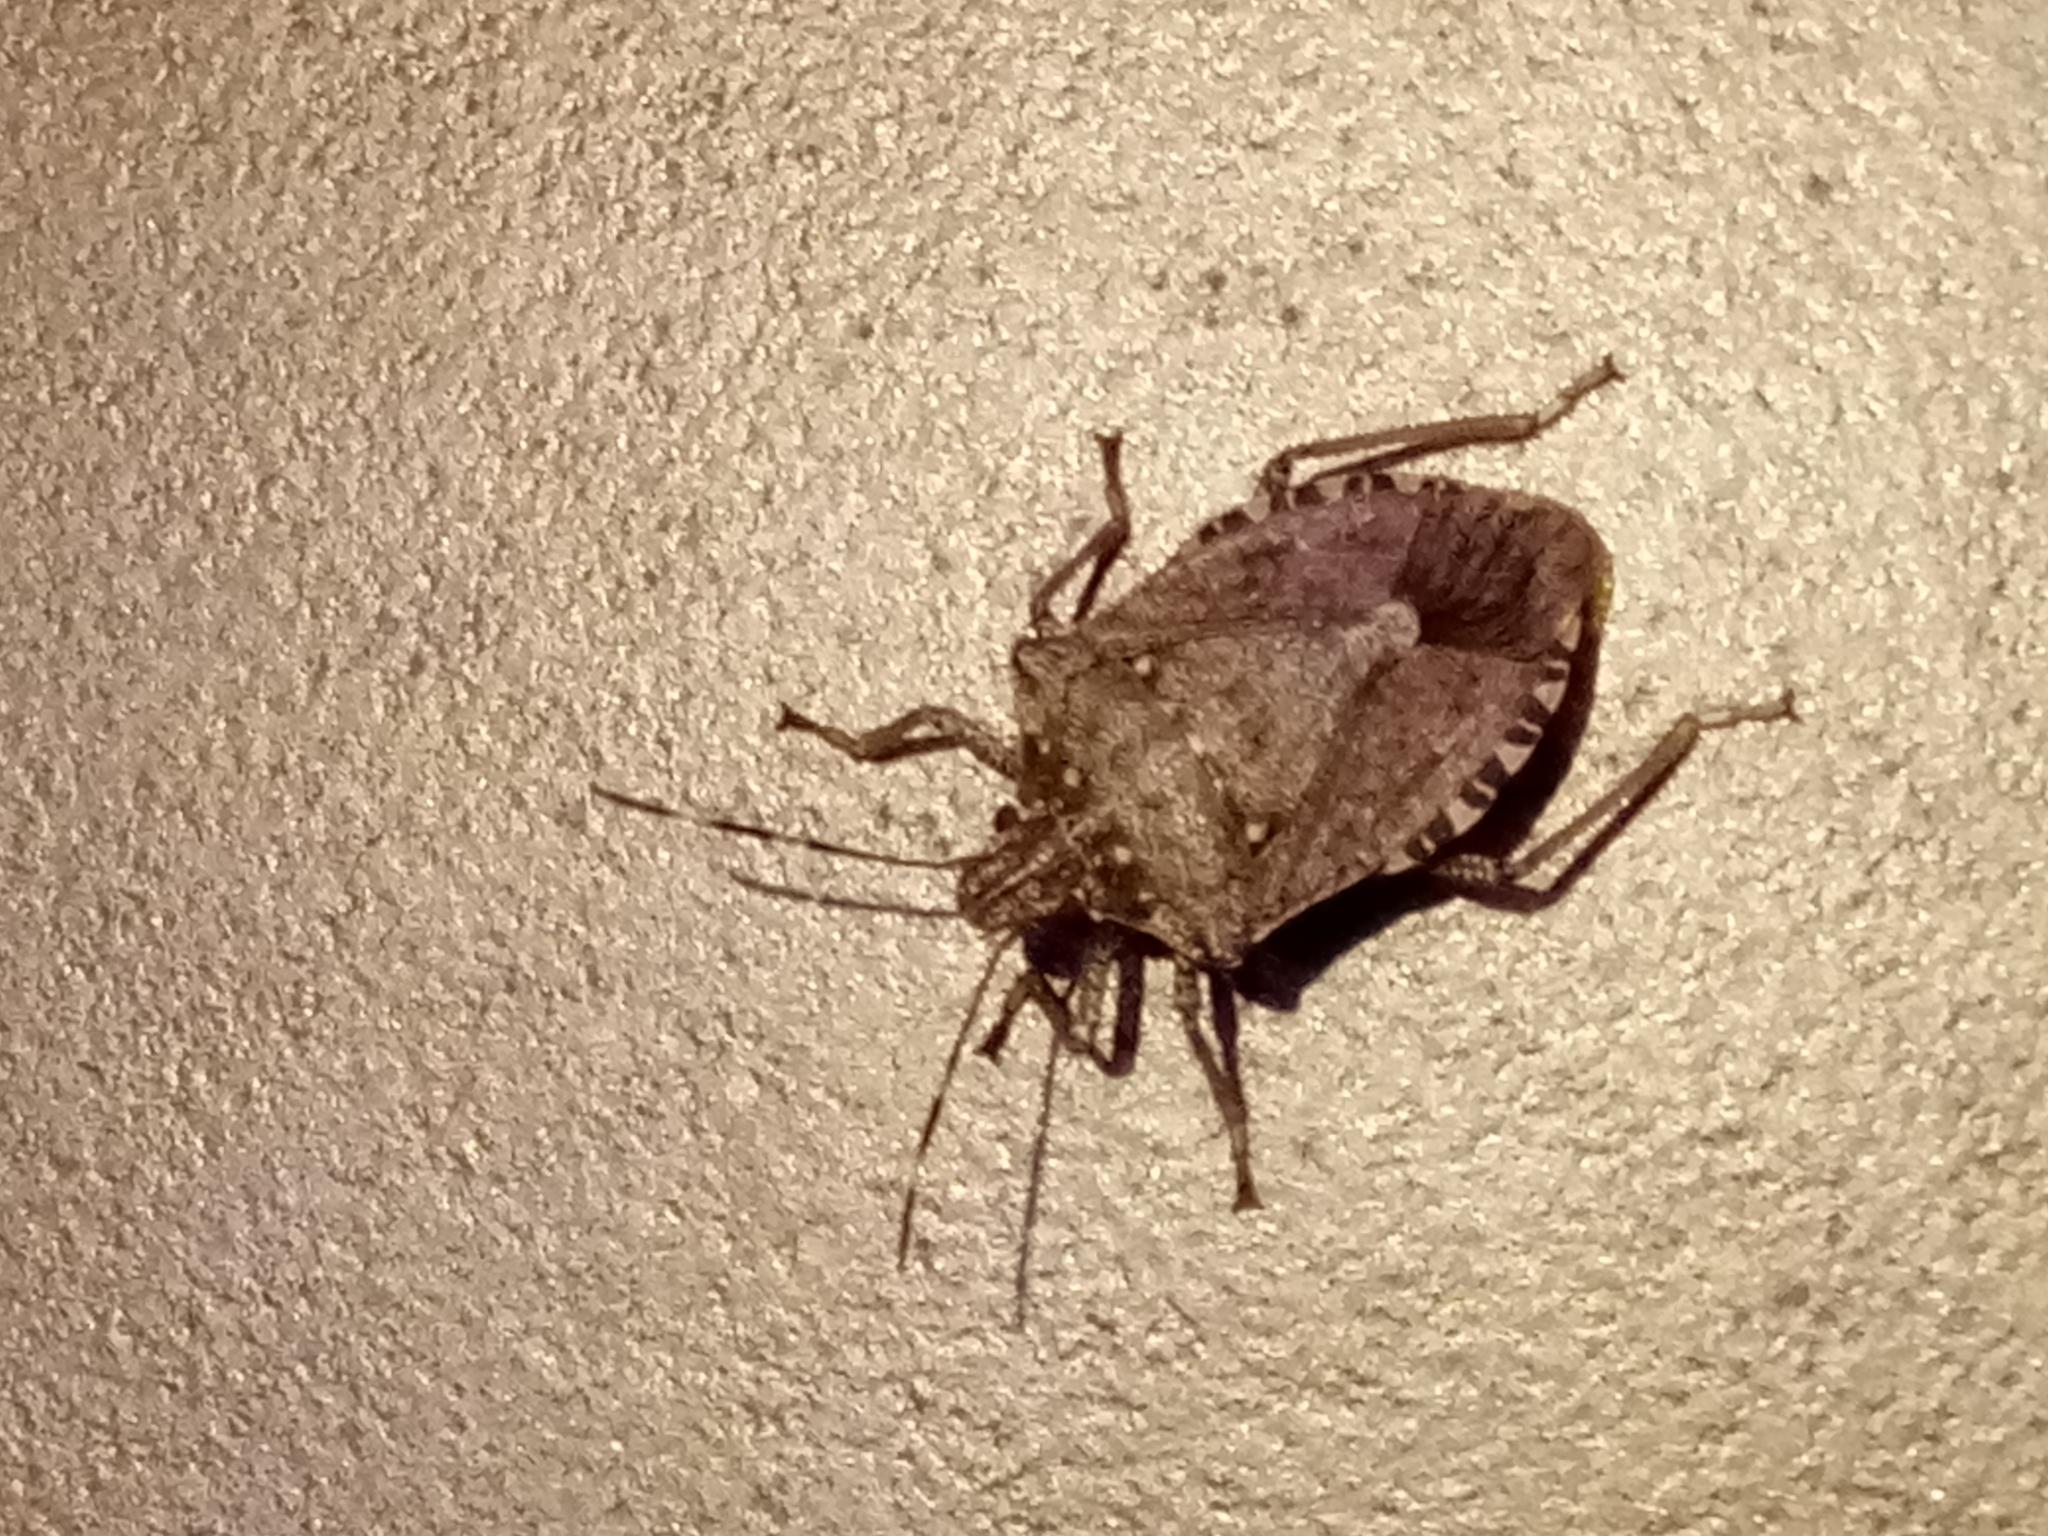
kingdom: Animalia
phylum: Arthropoda
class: Insecta
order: Hemiptera
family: Pentatomidae
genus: Halyomorpha
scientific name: Halyomorpha halys
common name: Brown marmorated stink bug
